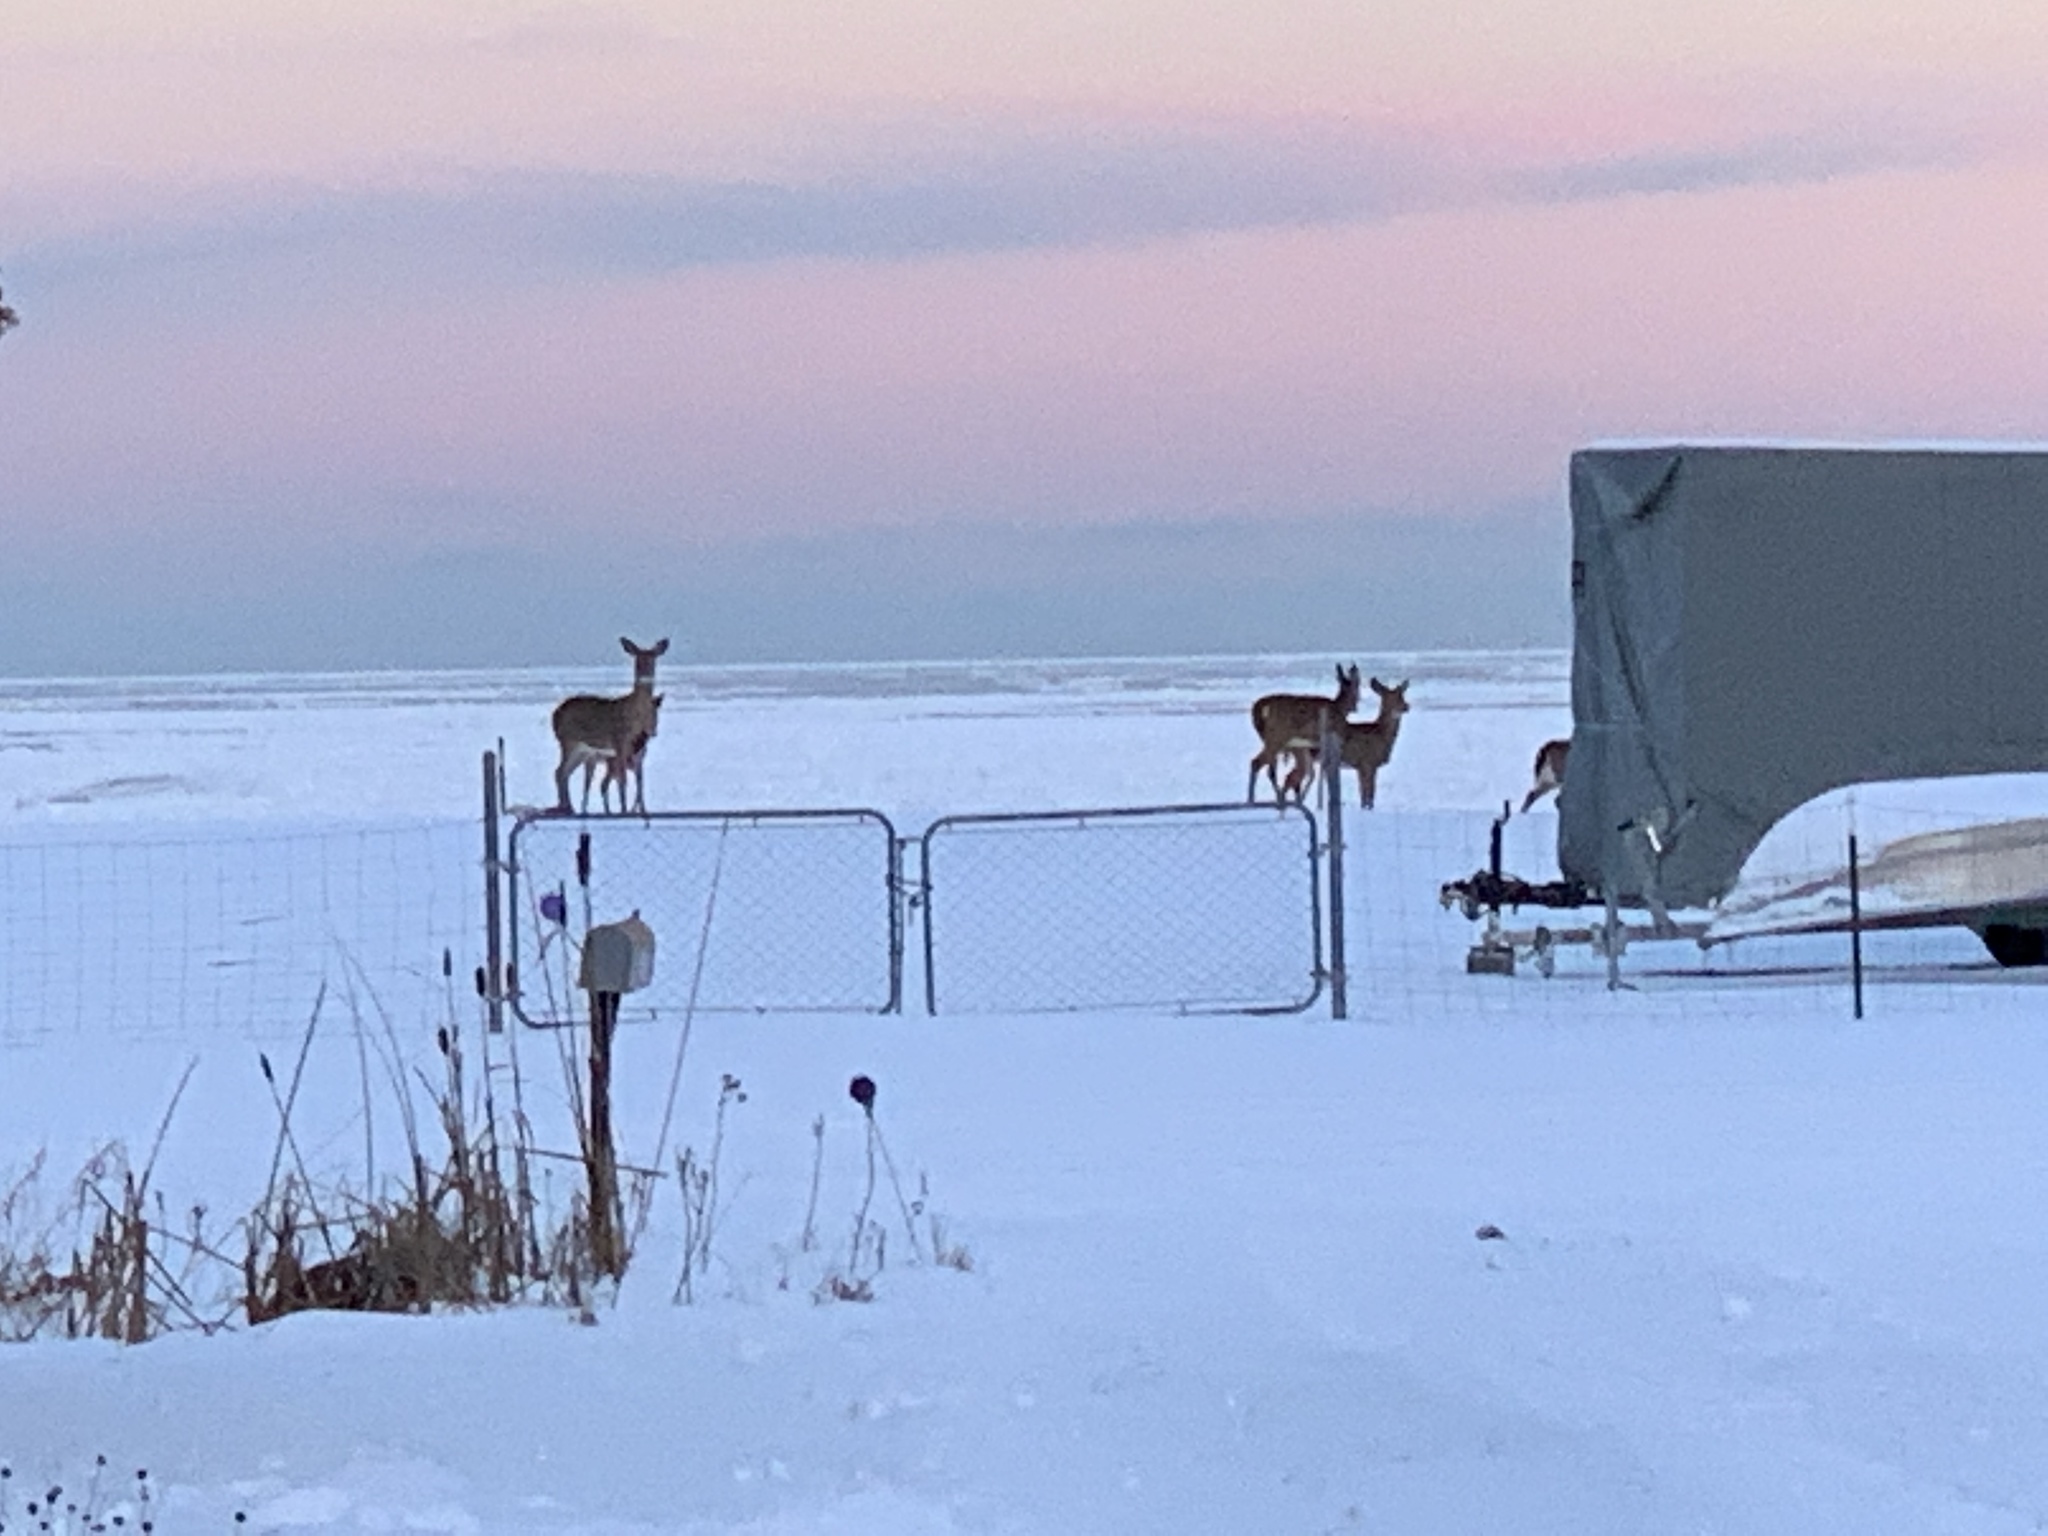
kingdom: Animalia
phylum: Chordata
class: Mammalia
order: Artiodactyla
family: Cervidae
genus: Odocoileus
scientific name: Odocoileus virginianus
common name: White-tailed deer
